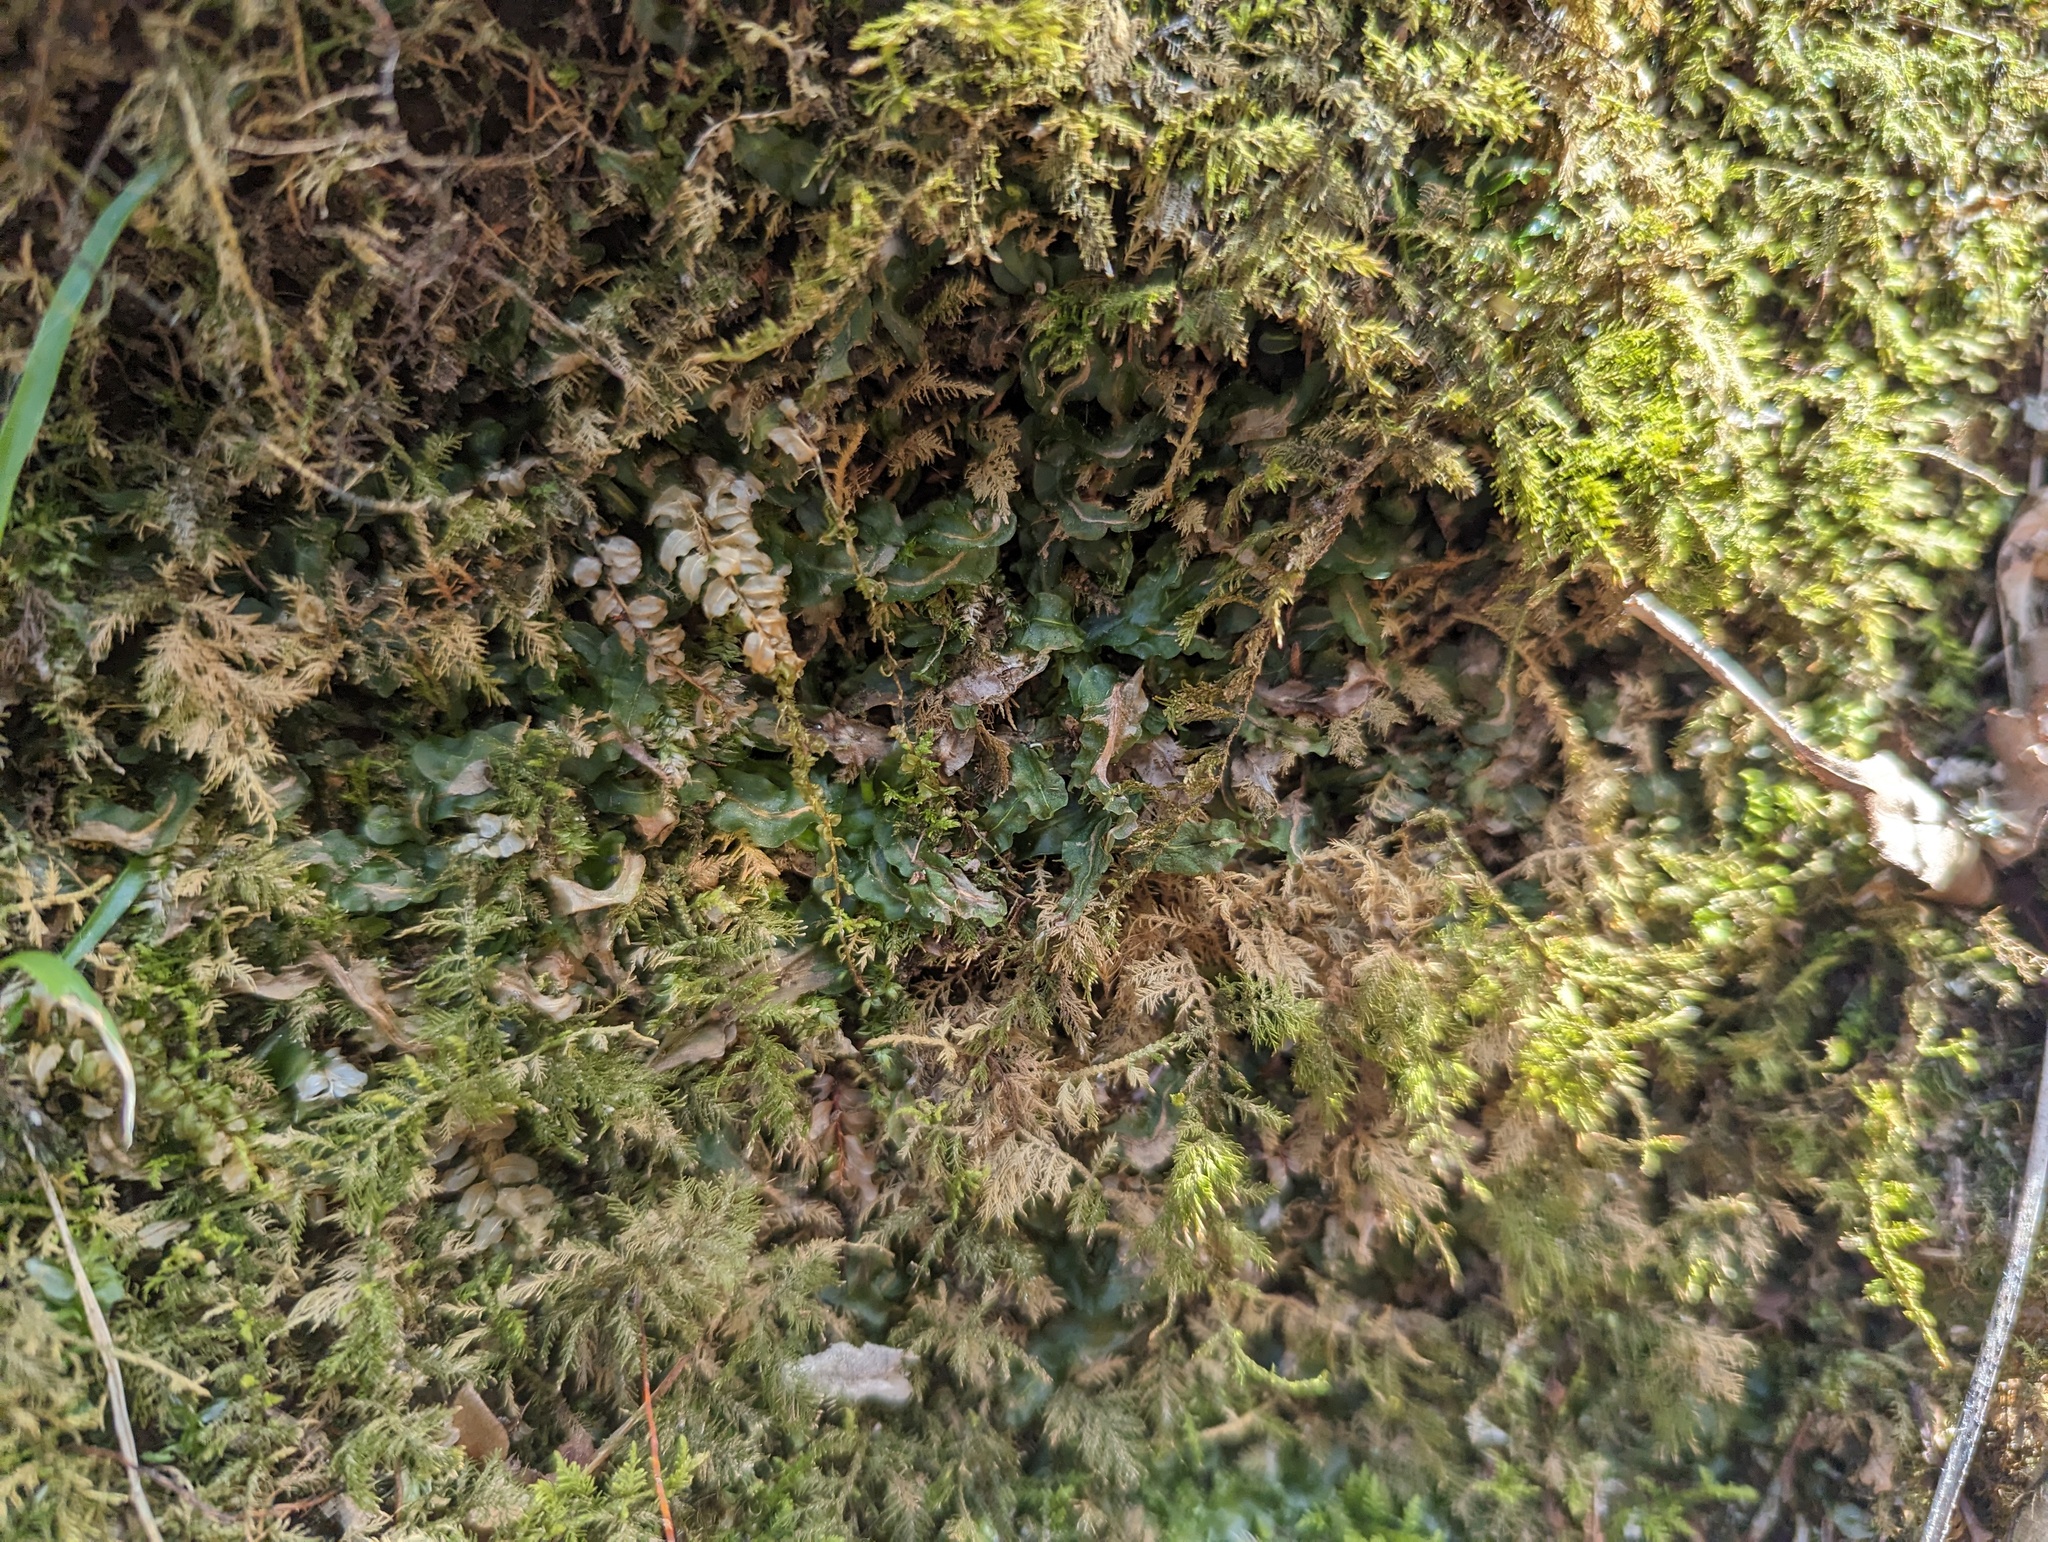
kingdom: Plantae
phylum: Marchantiophyta
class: Jungermanniopsida
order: Pallaviciniales
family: Pallaviciniaceae
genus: Pallavicinia
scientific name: Pallavicinia lyellii
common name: Veilwort
